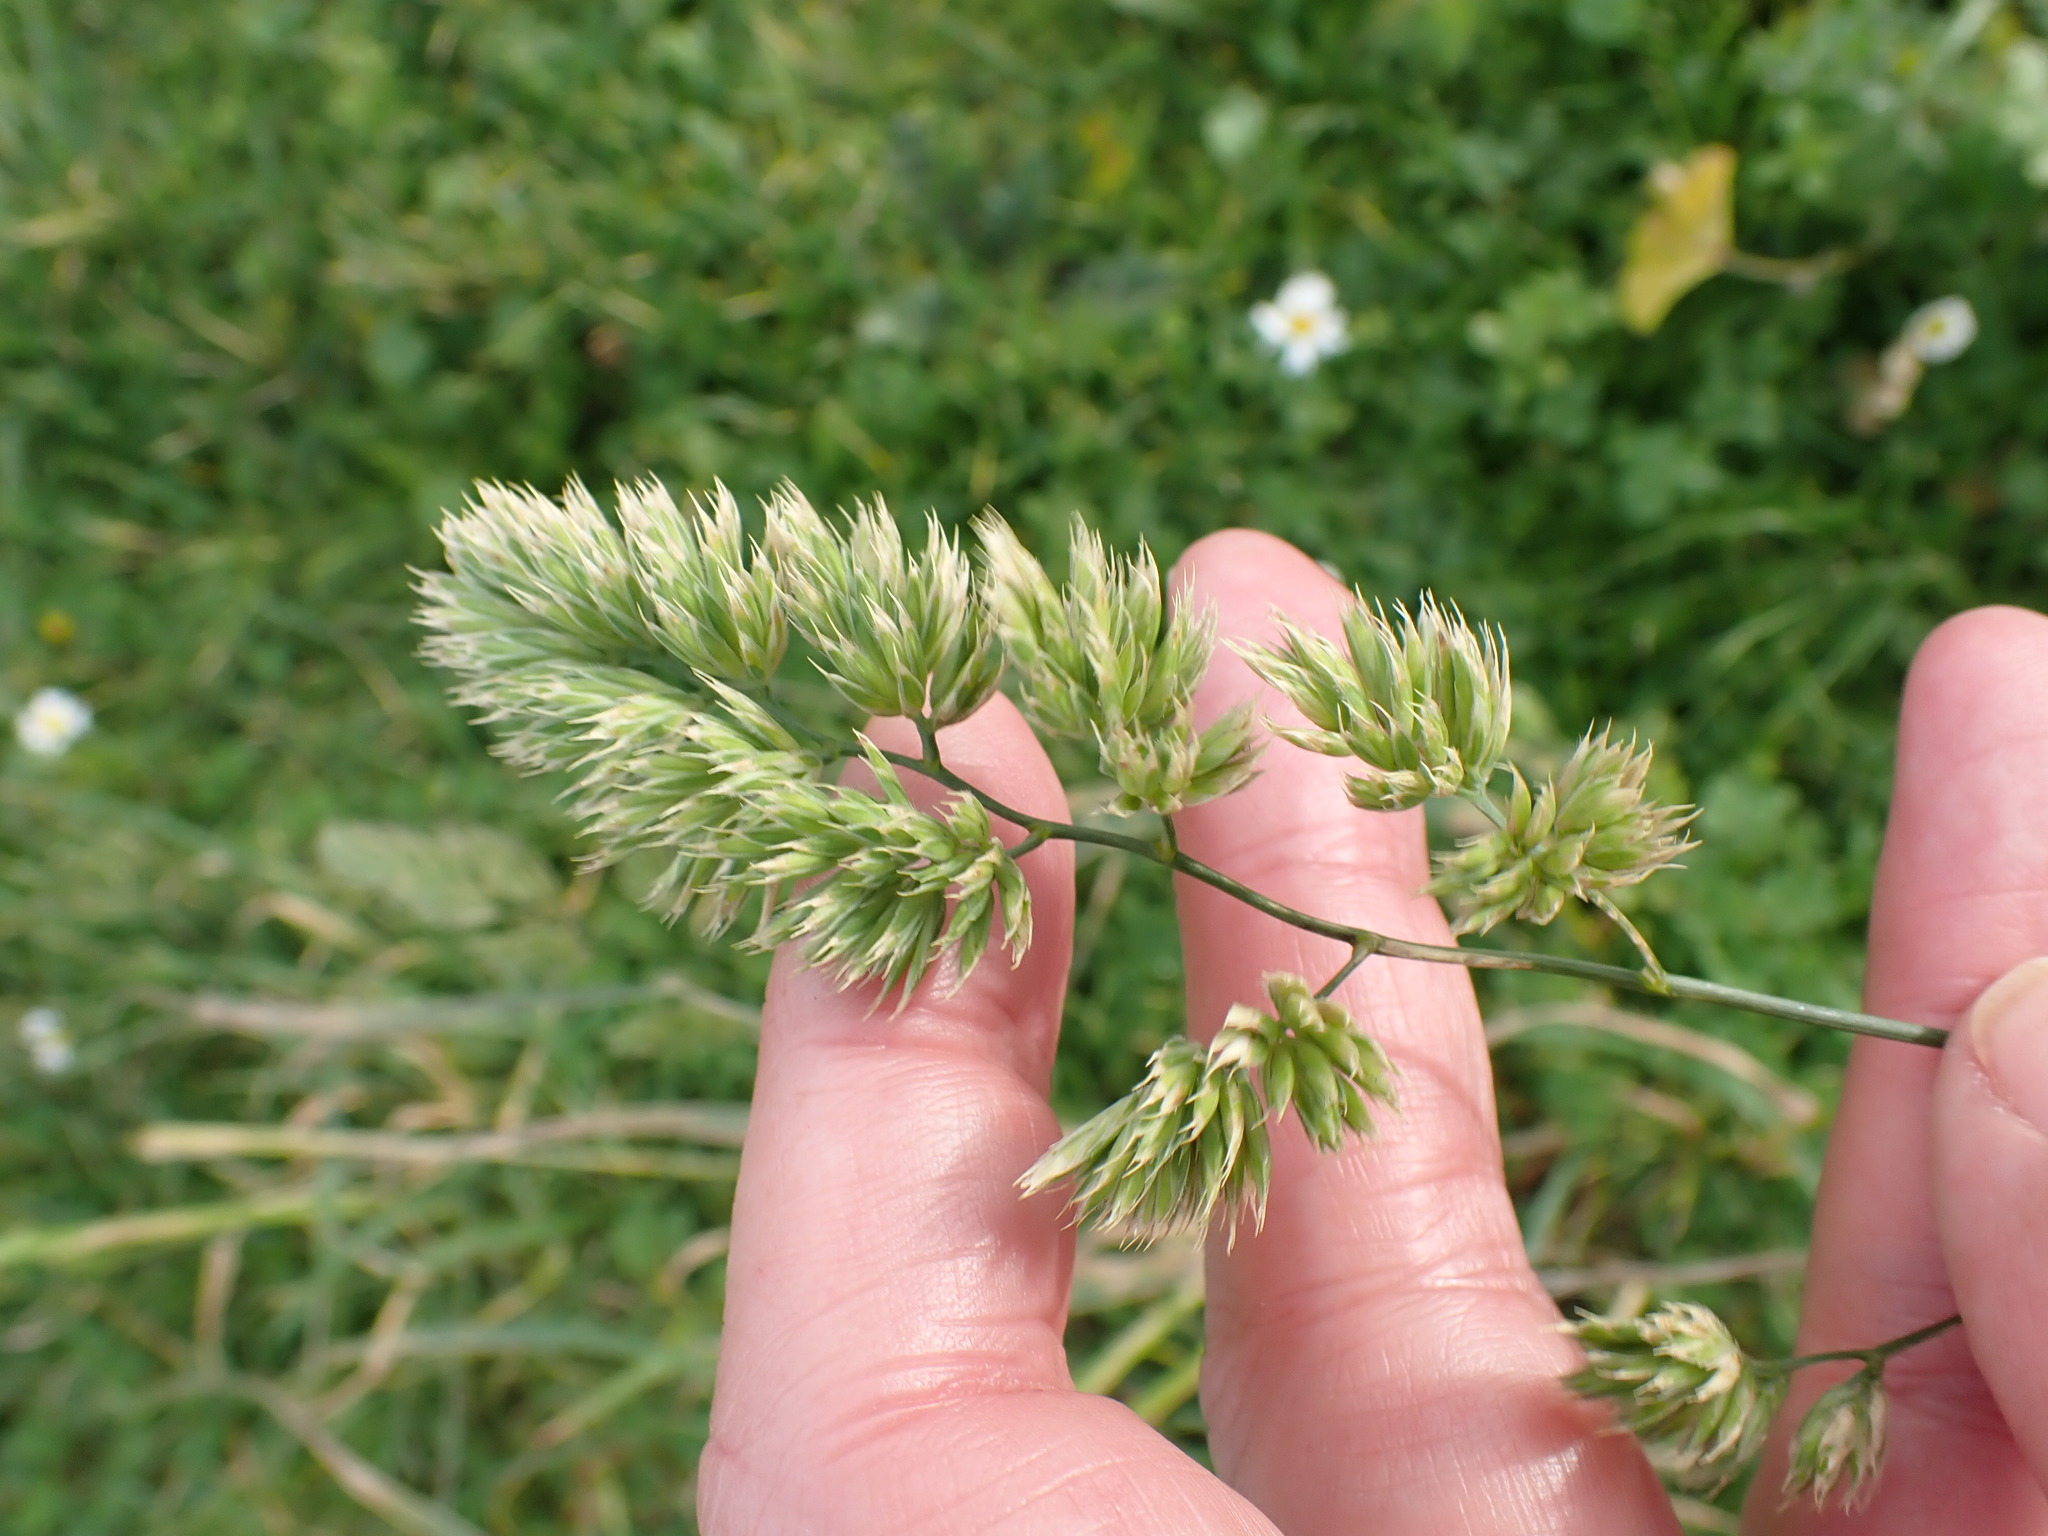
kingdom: Plantae
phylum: Tracheophyta
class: Liliopsida
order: Poales
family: Poaceae
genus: Dactylis
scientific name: Dactylis glomerata
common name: Orchardgrass
